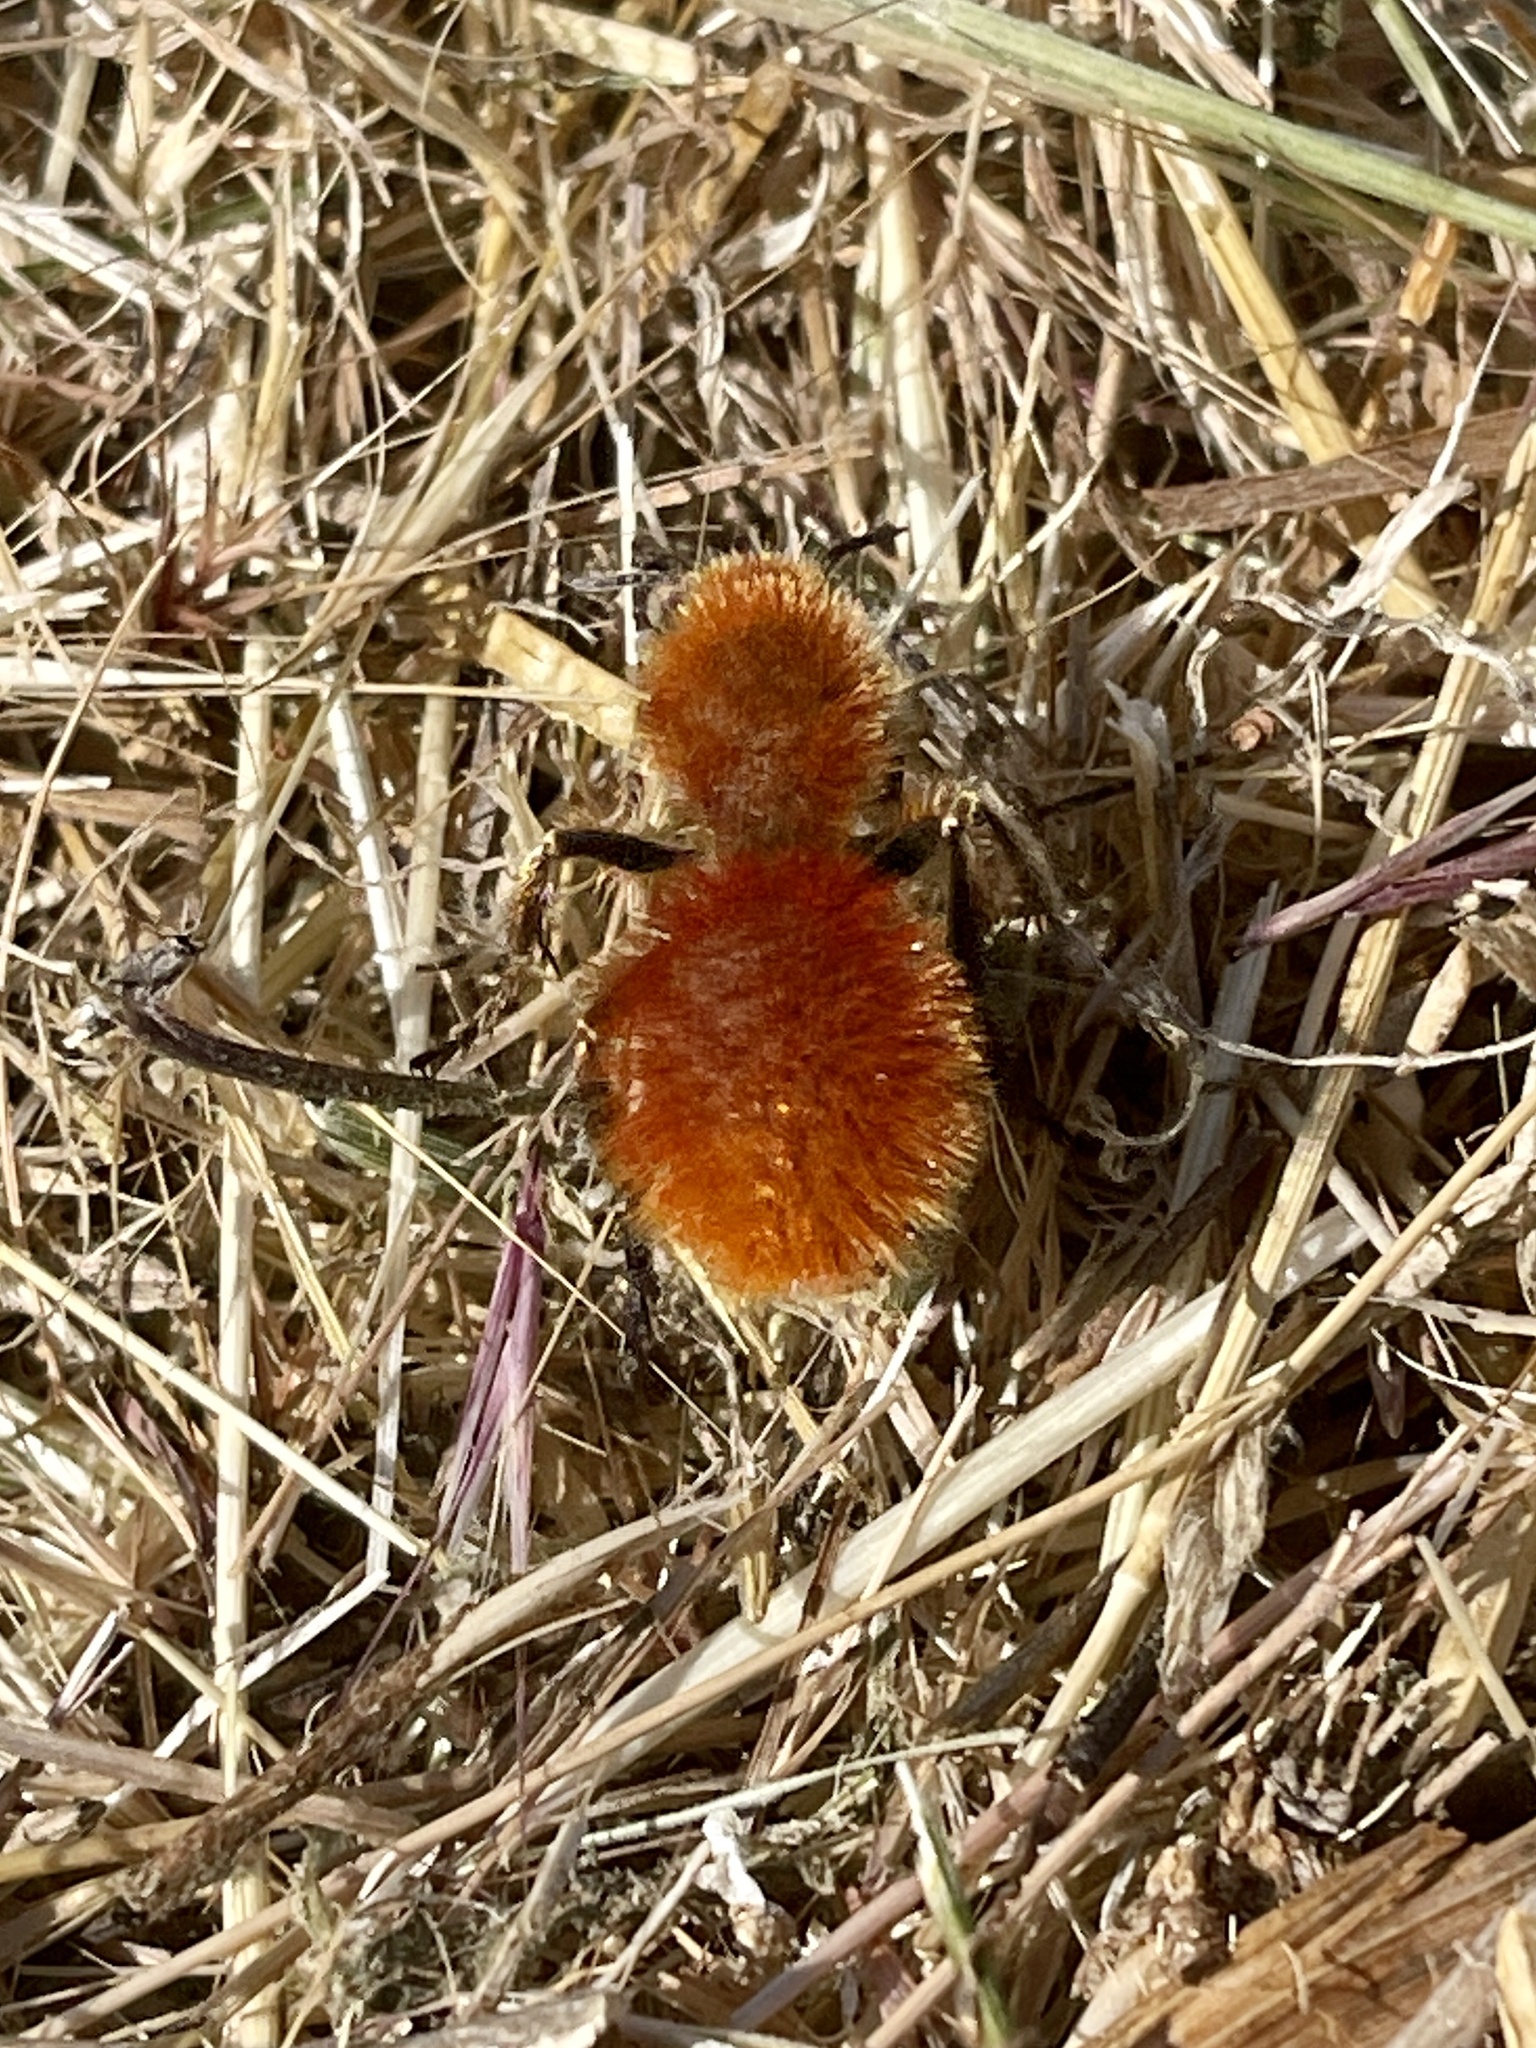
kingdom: Animalia
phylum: Arthropoda
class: Insecta
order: Hymenoptera
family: Mutillidae
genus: Dasymutilla
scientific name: Dasymutilla magnifica
